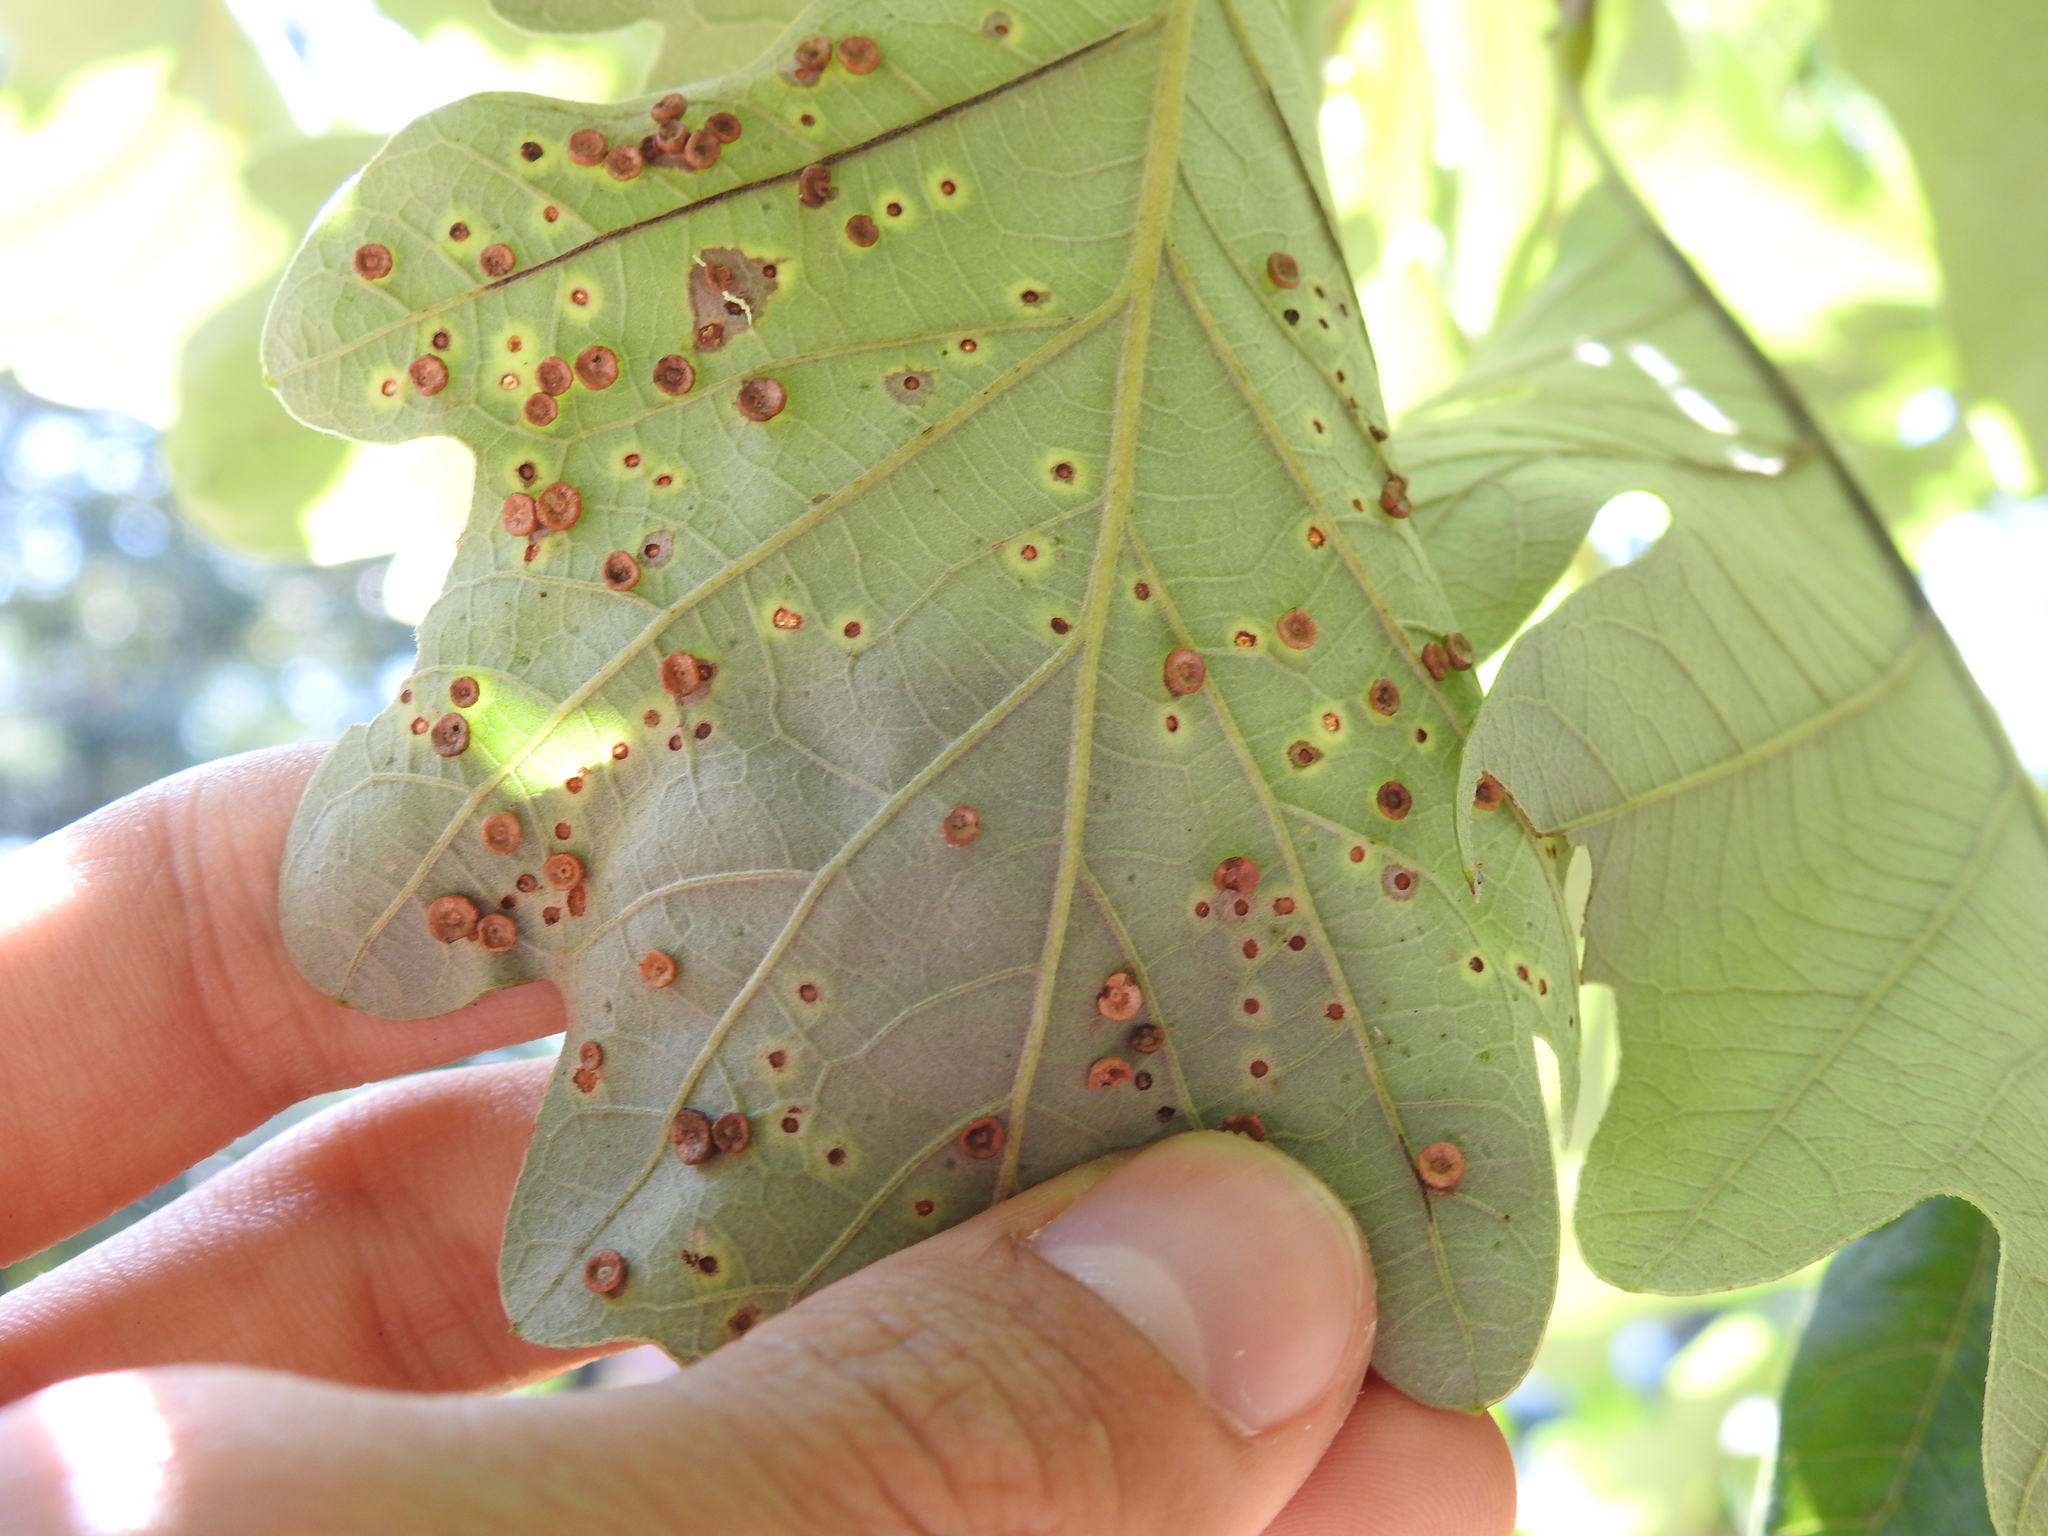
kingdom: Animalia
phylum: Arthropoda
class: Insecta
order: Hymenoptera
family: Cynipidae
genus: Neuroterus
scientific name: Neuroterus saltarius
